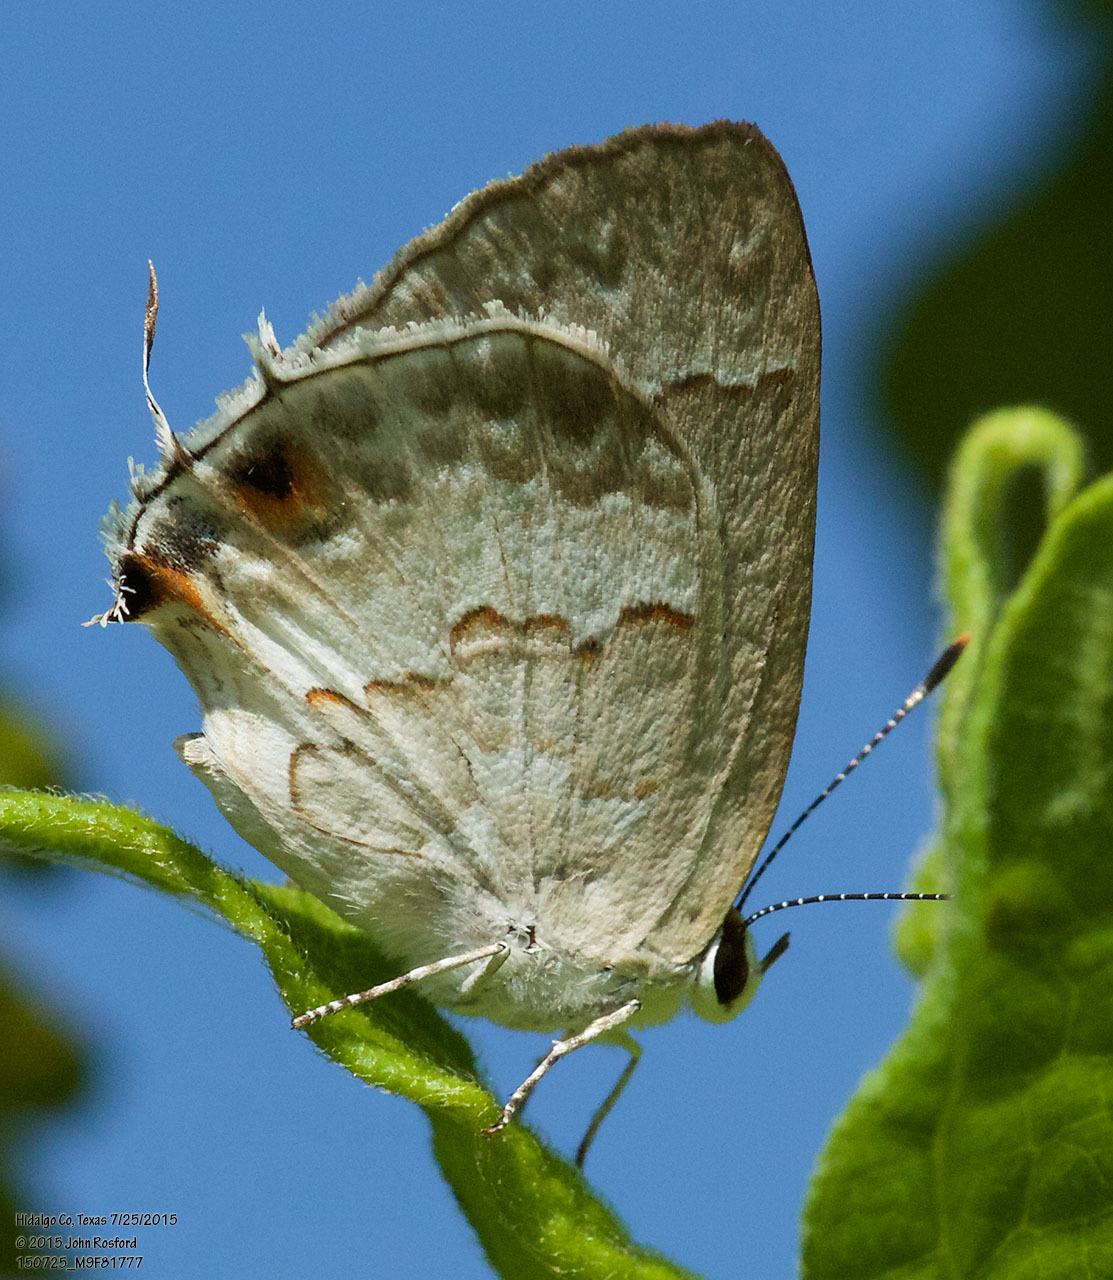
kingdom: Animalia
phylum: Arthropoda
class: Insecta
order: Lepidoptera
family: Lycaenidae
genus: Strymon
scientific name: Strymon albata
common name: White scrub-hairstreak
